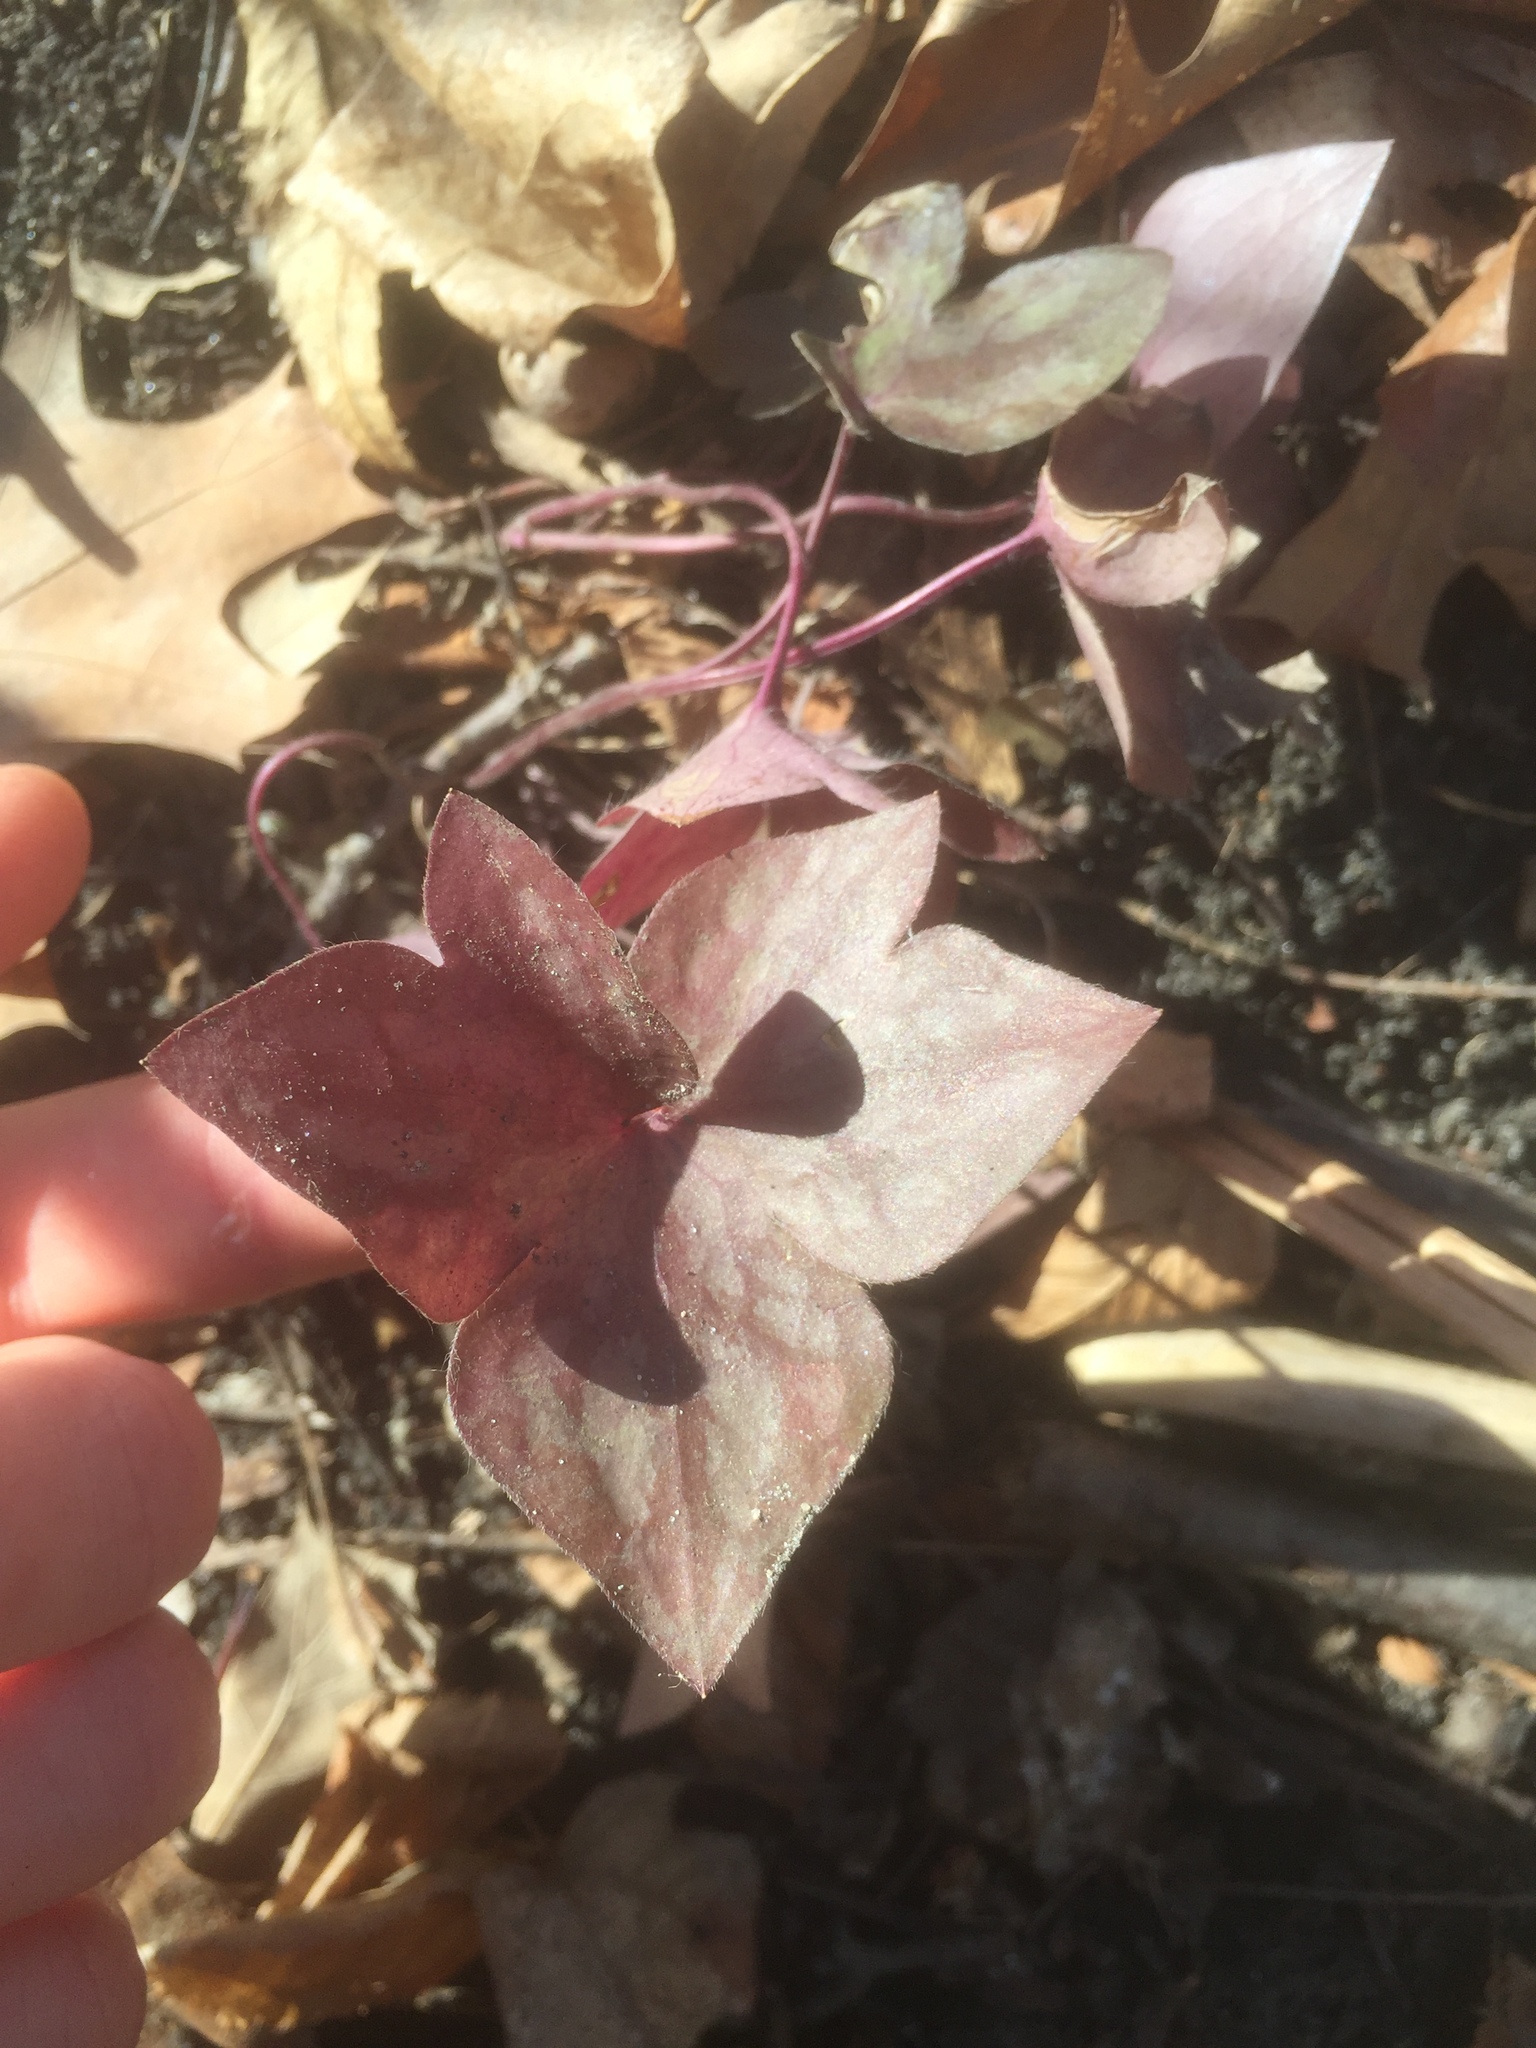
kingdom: Plantae
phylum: Tracheophyta
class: Magnoliopsida
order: Ranunculales
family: Ranunculaceae
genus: Hepatica
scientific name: Hepatica acutiloba
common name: Sharp-lobed hepatica
